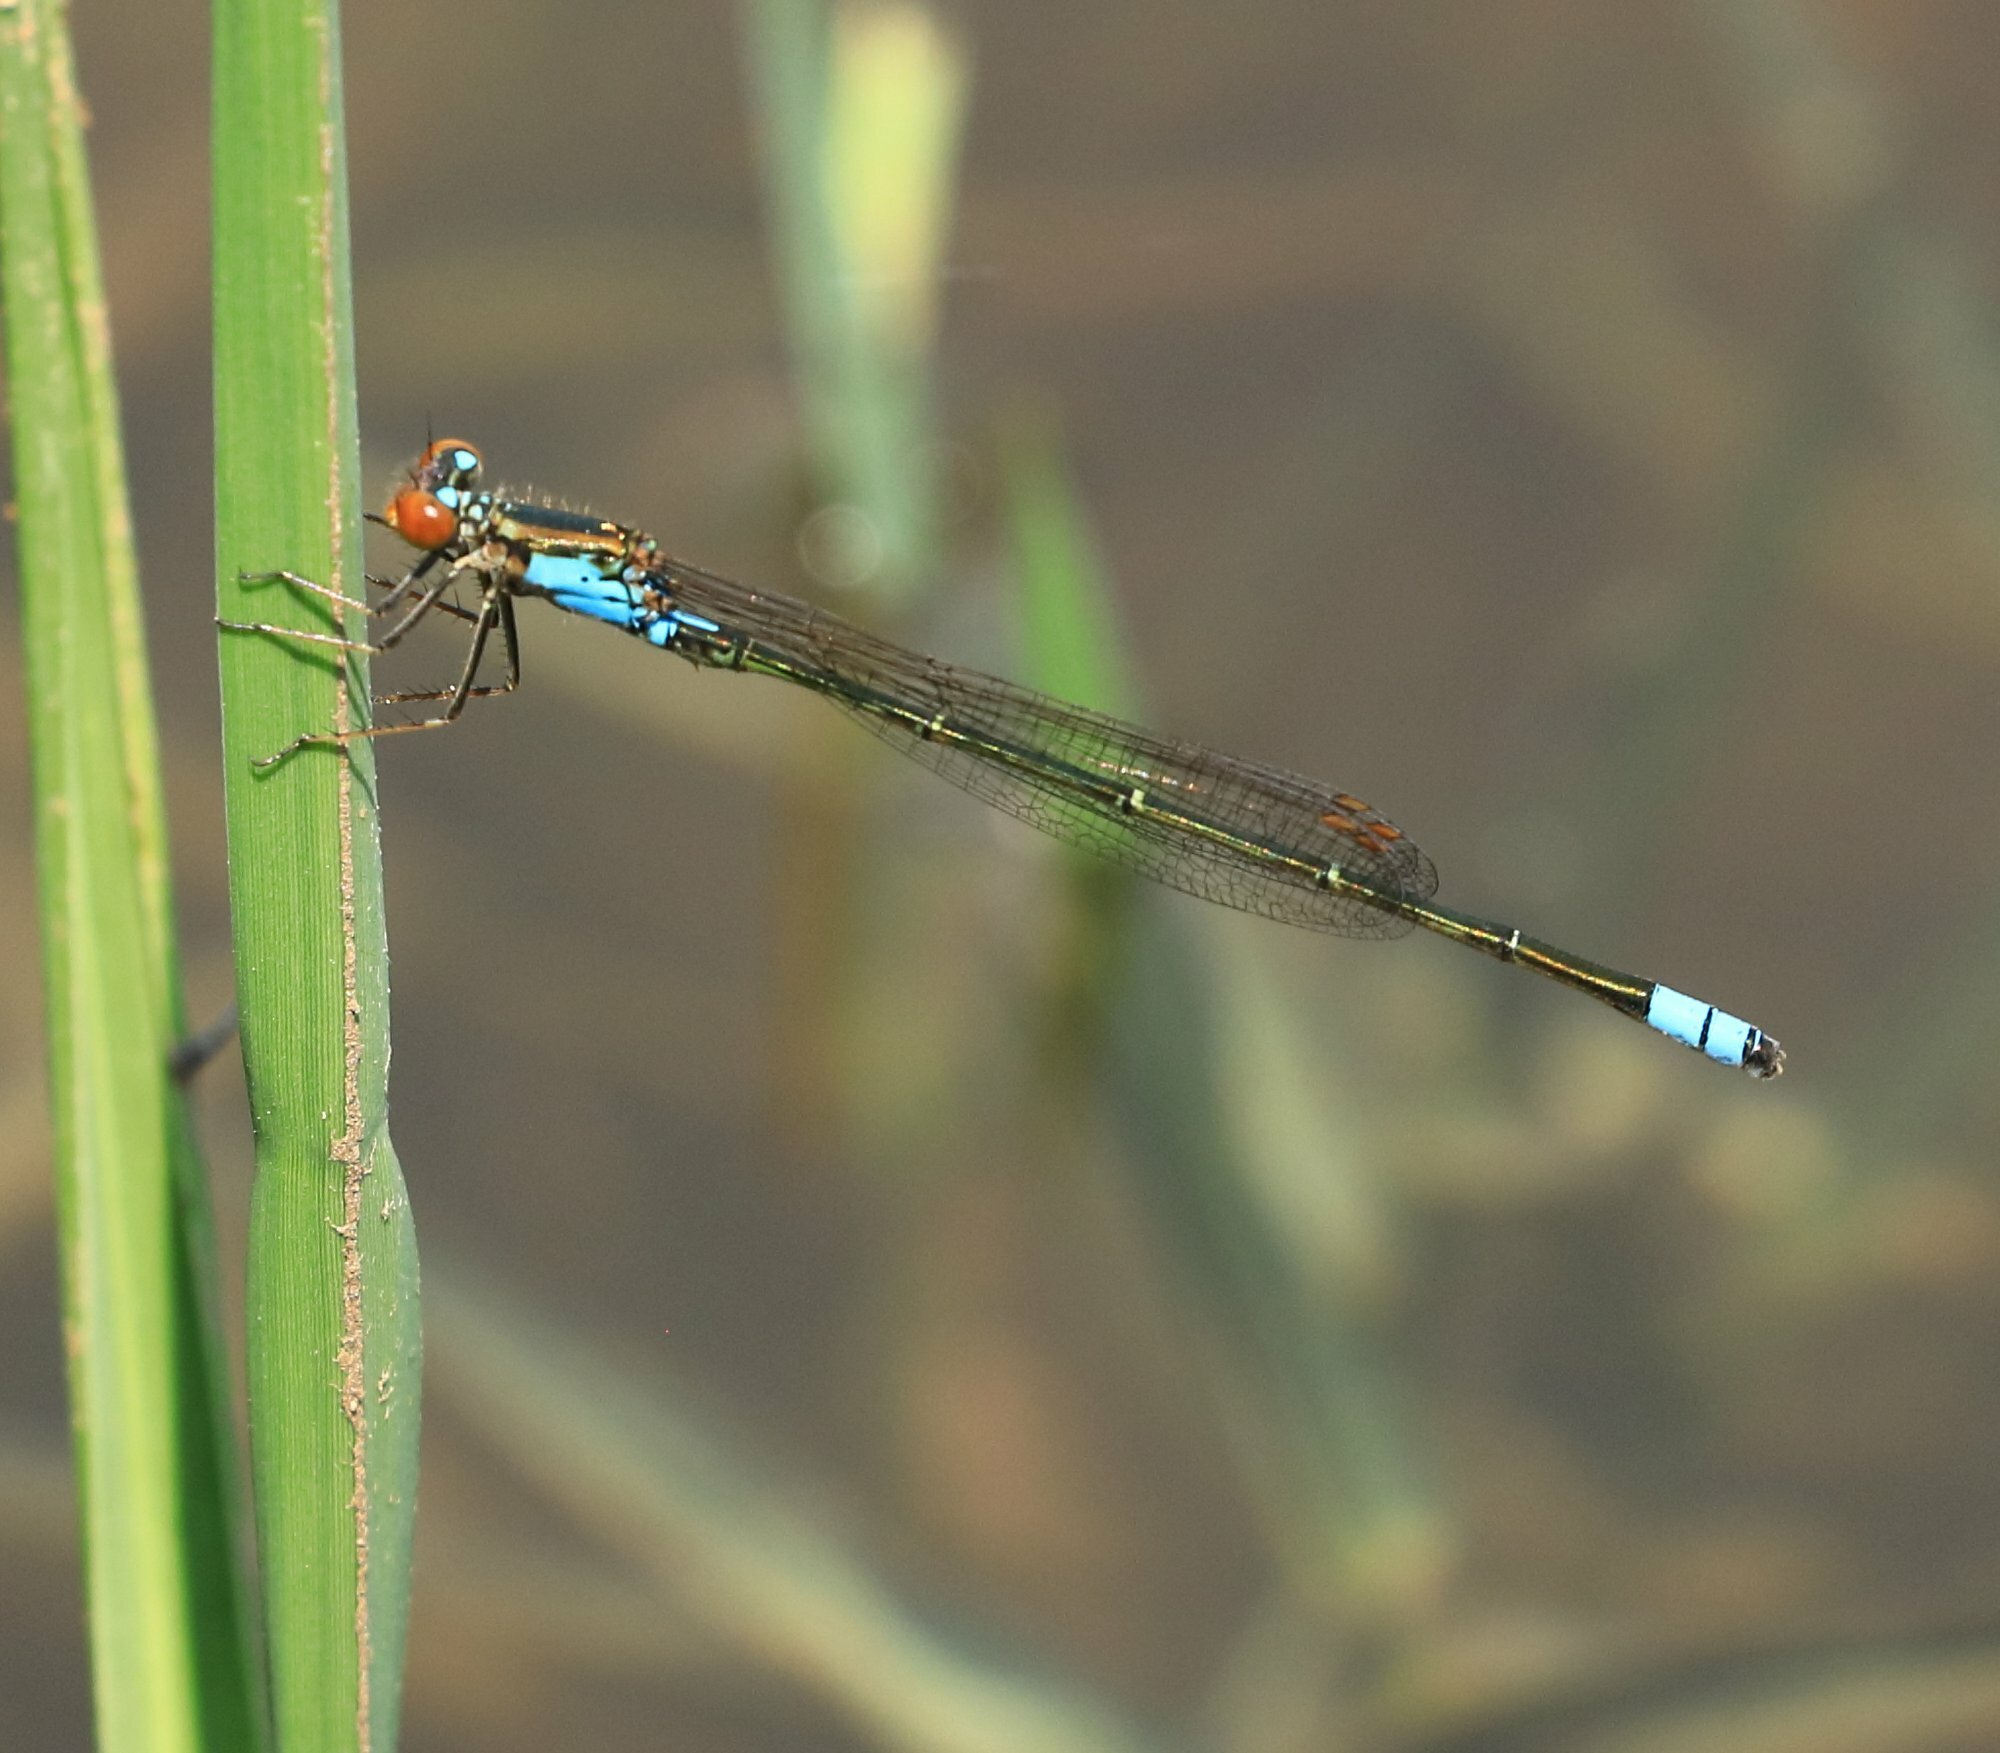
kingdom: Animalia
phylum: Arthropoda
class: Insecta
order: Odonata
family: Coenagrionidae
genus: Pseudagrion
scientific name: Pseudagrion sudanicum
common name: Blue-sided sprite
